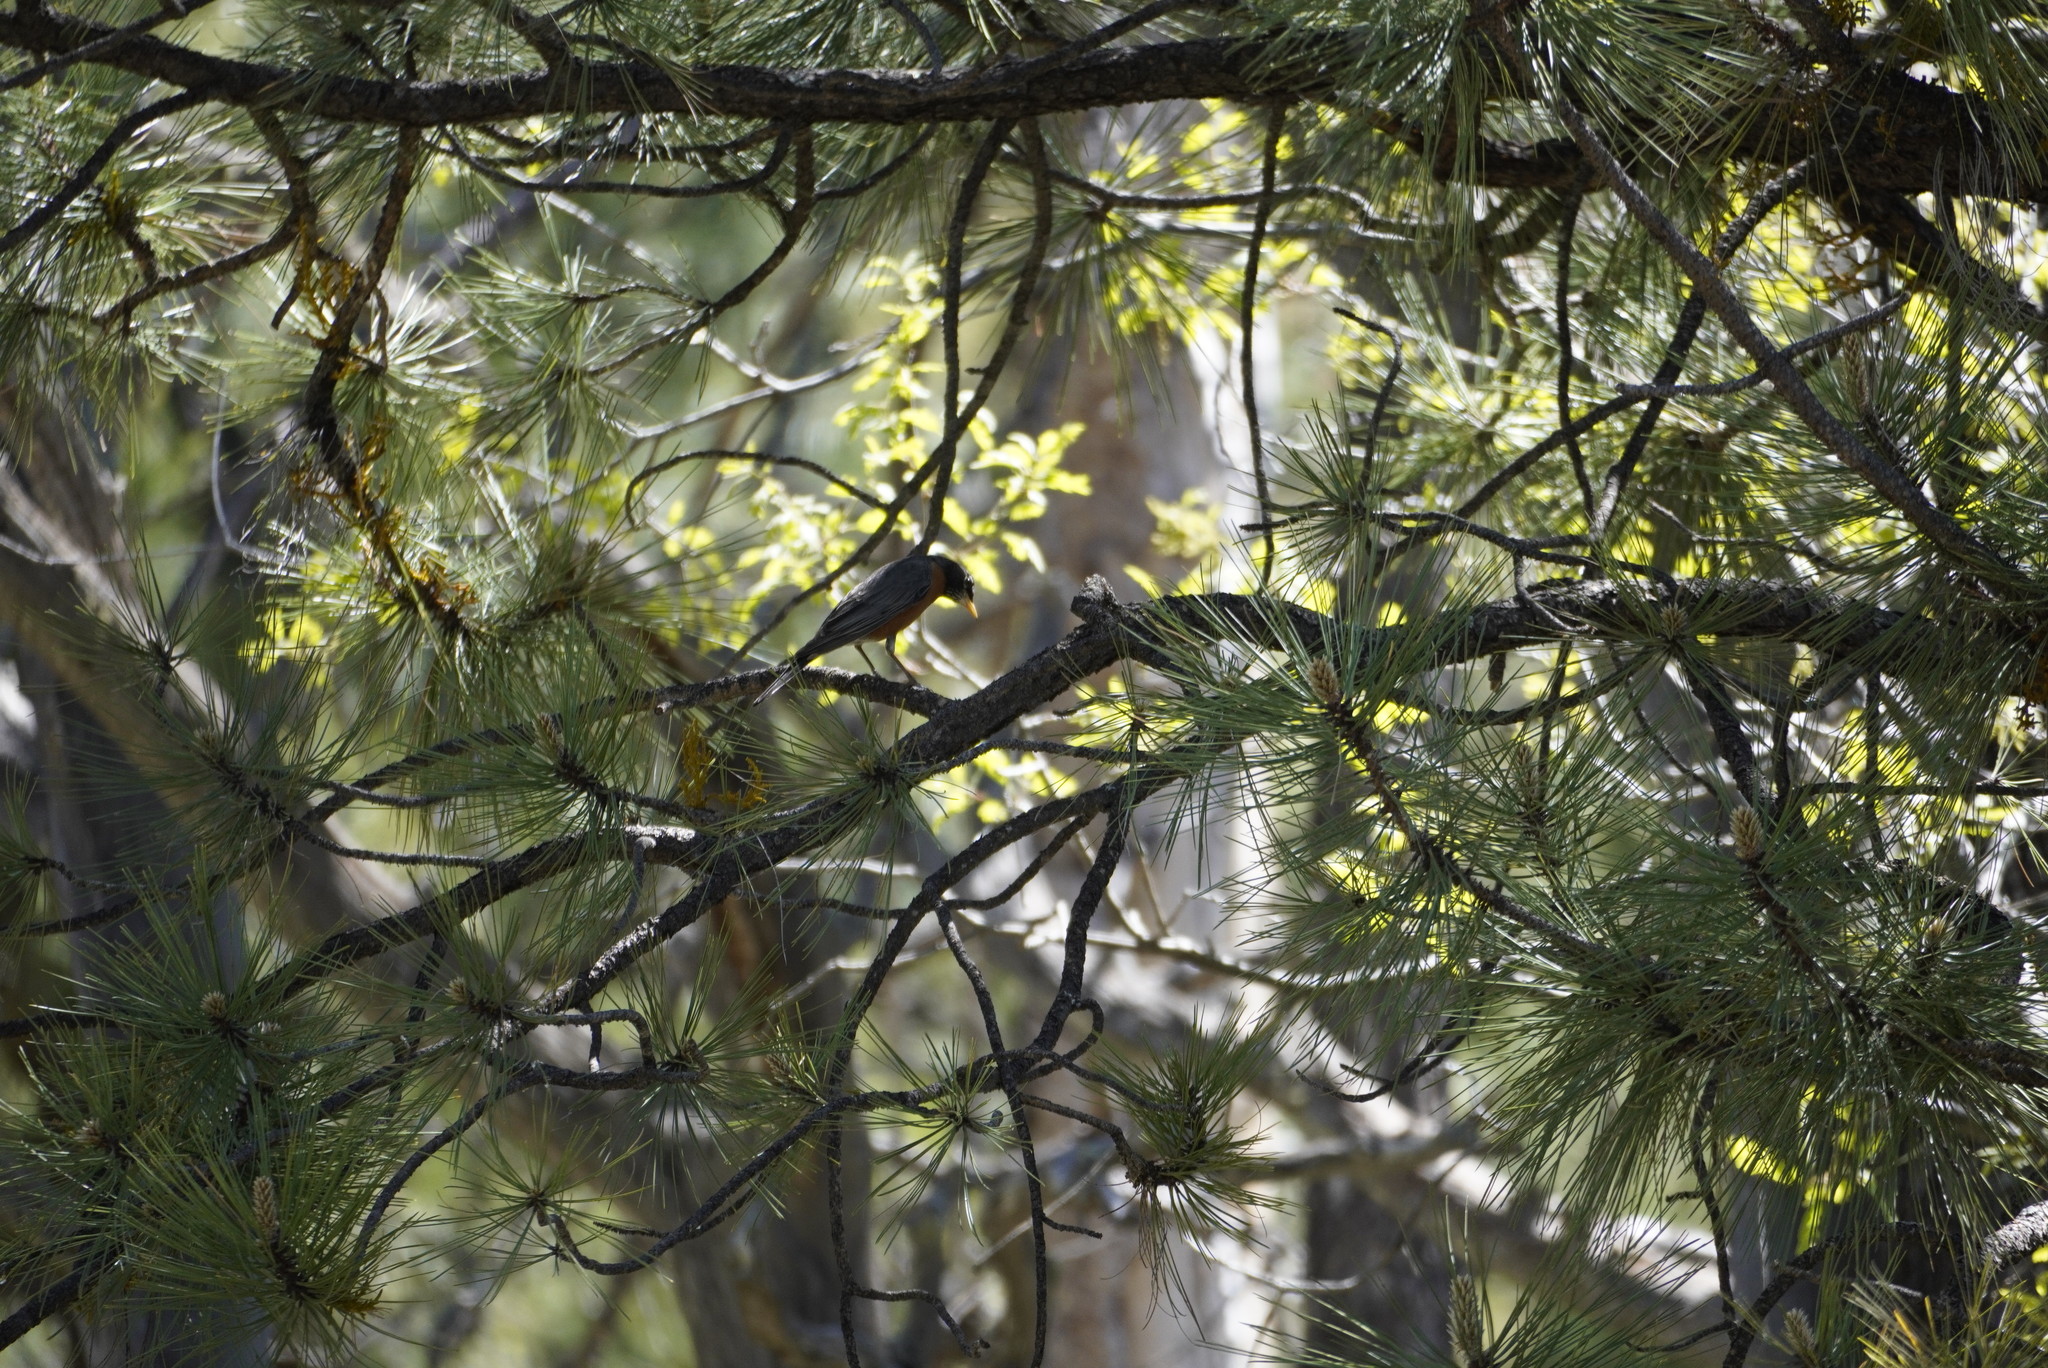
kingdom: Animalia
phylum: Chordata
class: Aves
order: Passeriformes
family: Turdidae
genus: Turdus
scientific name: Turdus migratorius
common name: American robin
